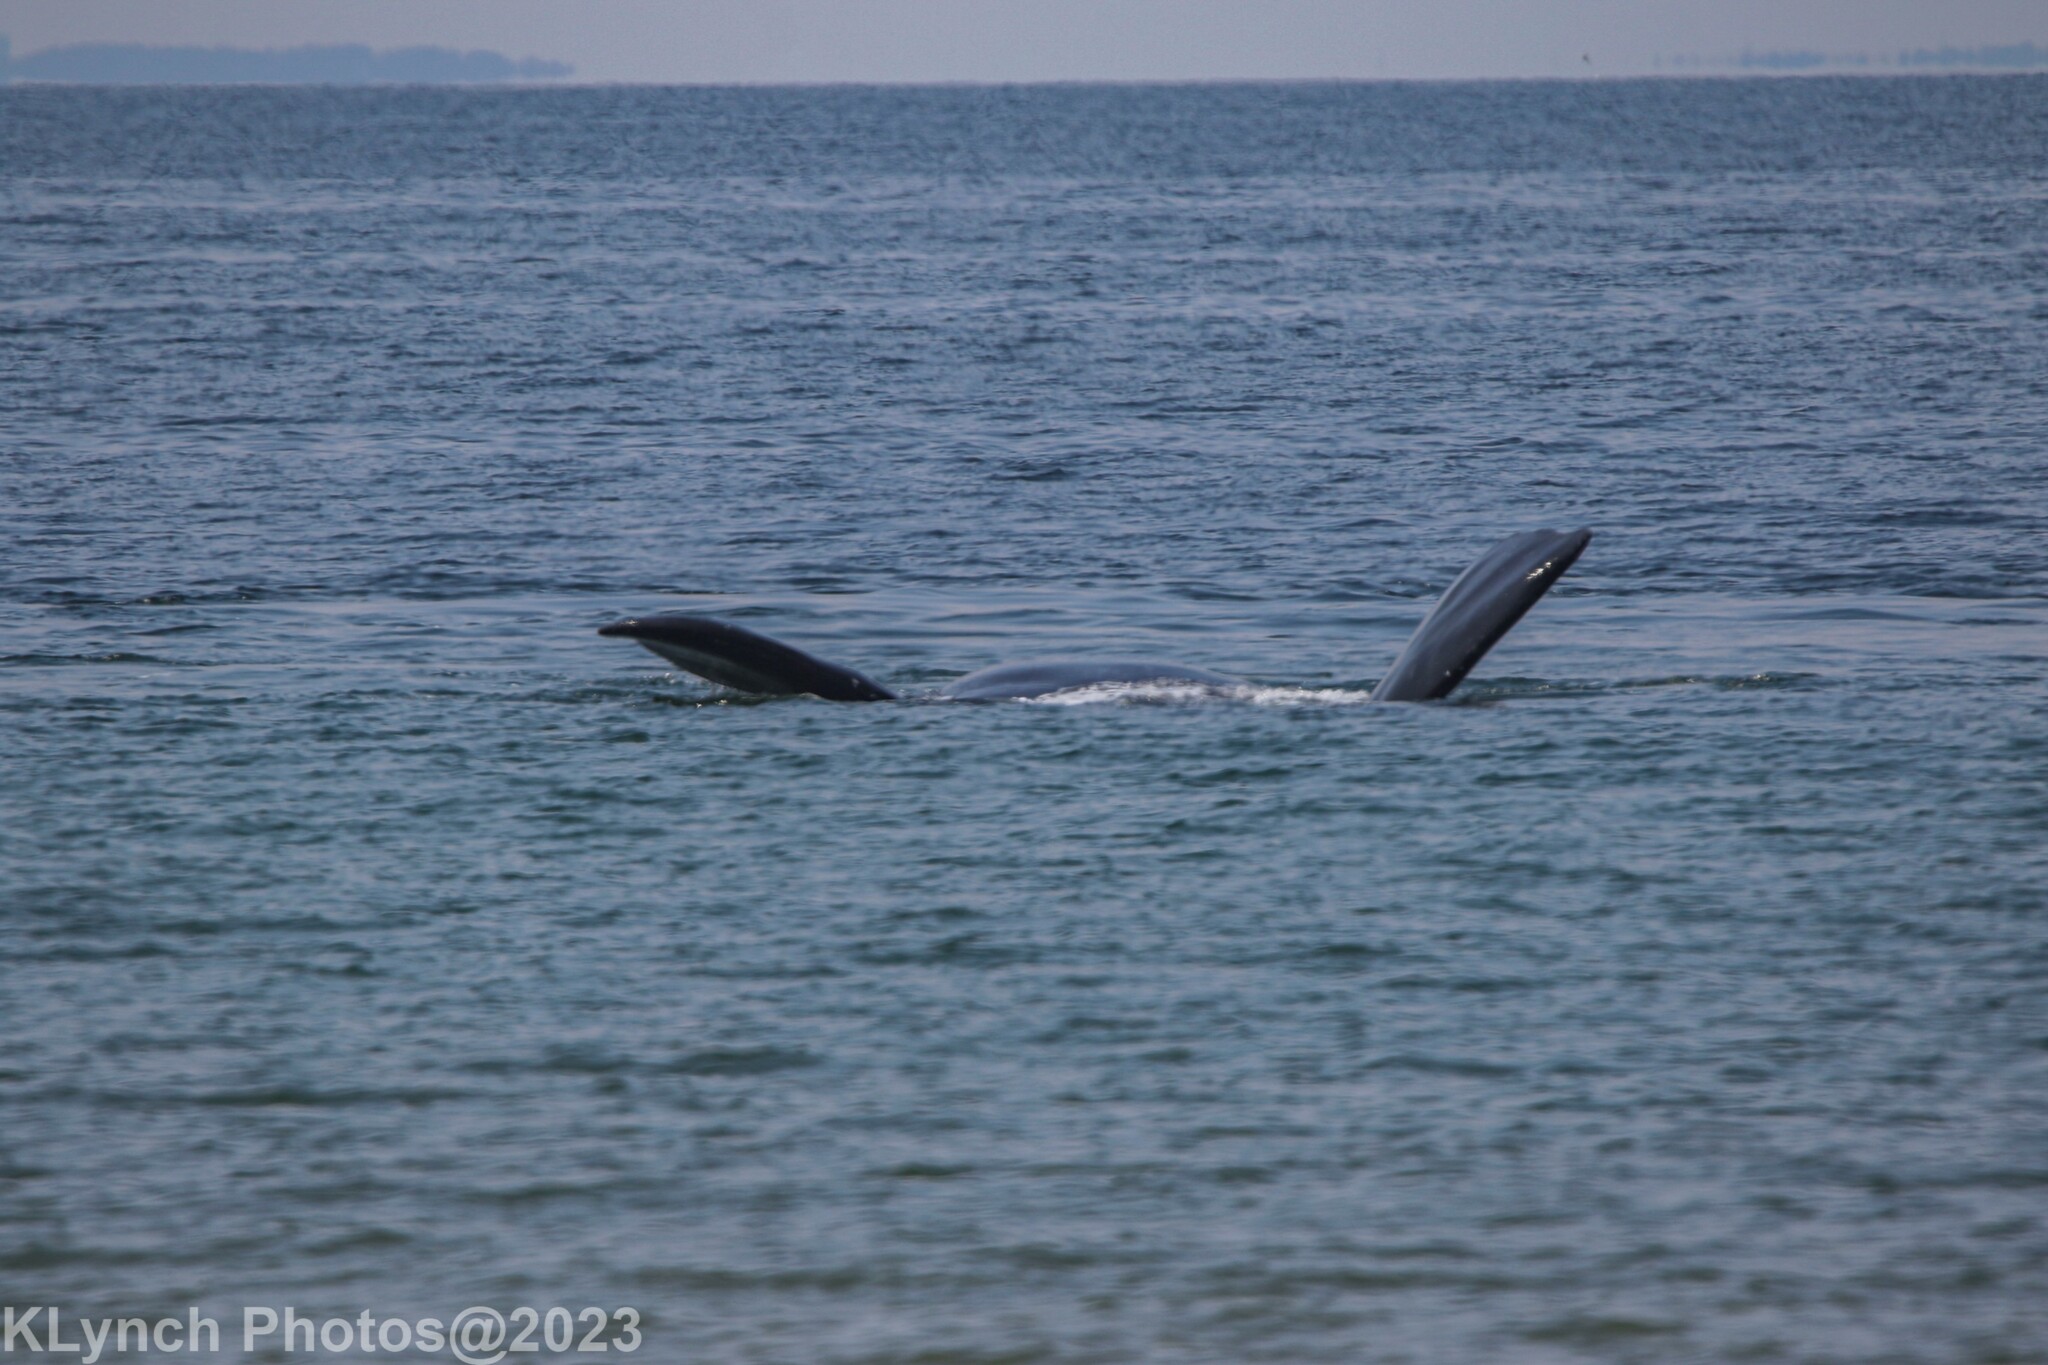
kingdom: Animalia
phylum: Chordata
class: Mammalia
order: Cetacea
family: Balaenidae
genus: Eubalaena
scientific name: Eubalaena glacialis
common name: North atlantic right whale
